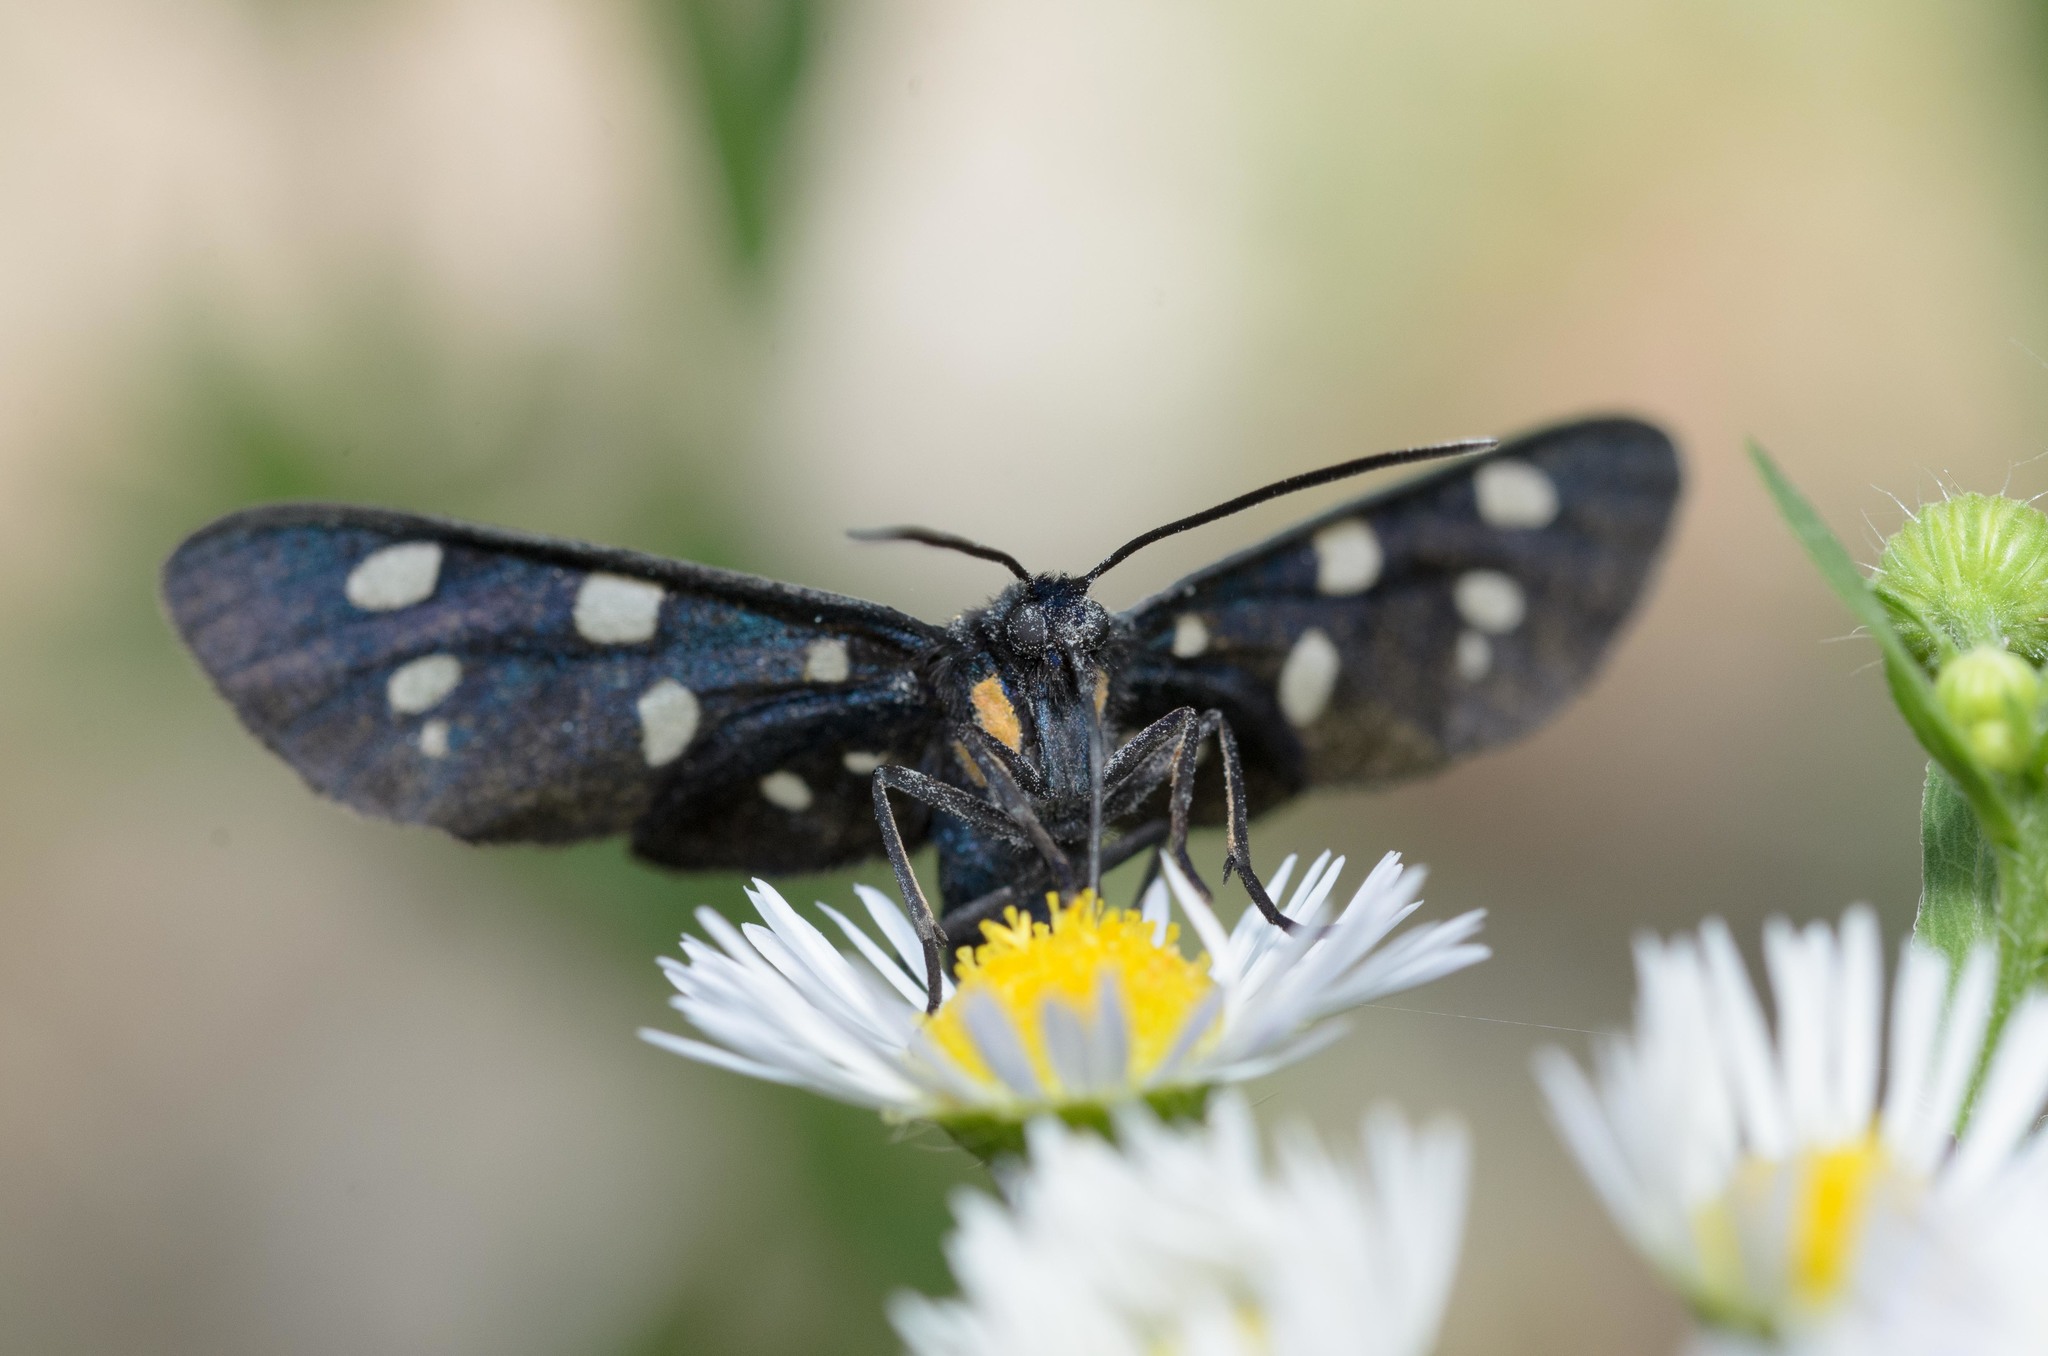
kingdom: Animalia
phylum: Arthropoda
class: Insecta
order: Lepidoptera
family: Erebidae
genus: Amata
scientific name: Amata phegea
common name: Nine-spotted
